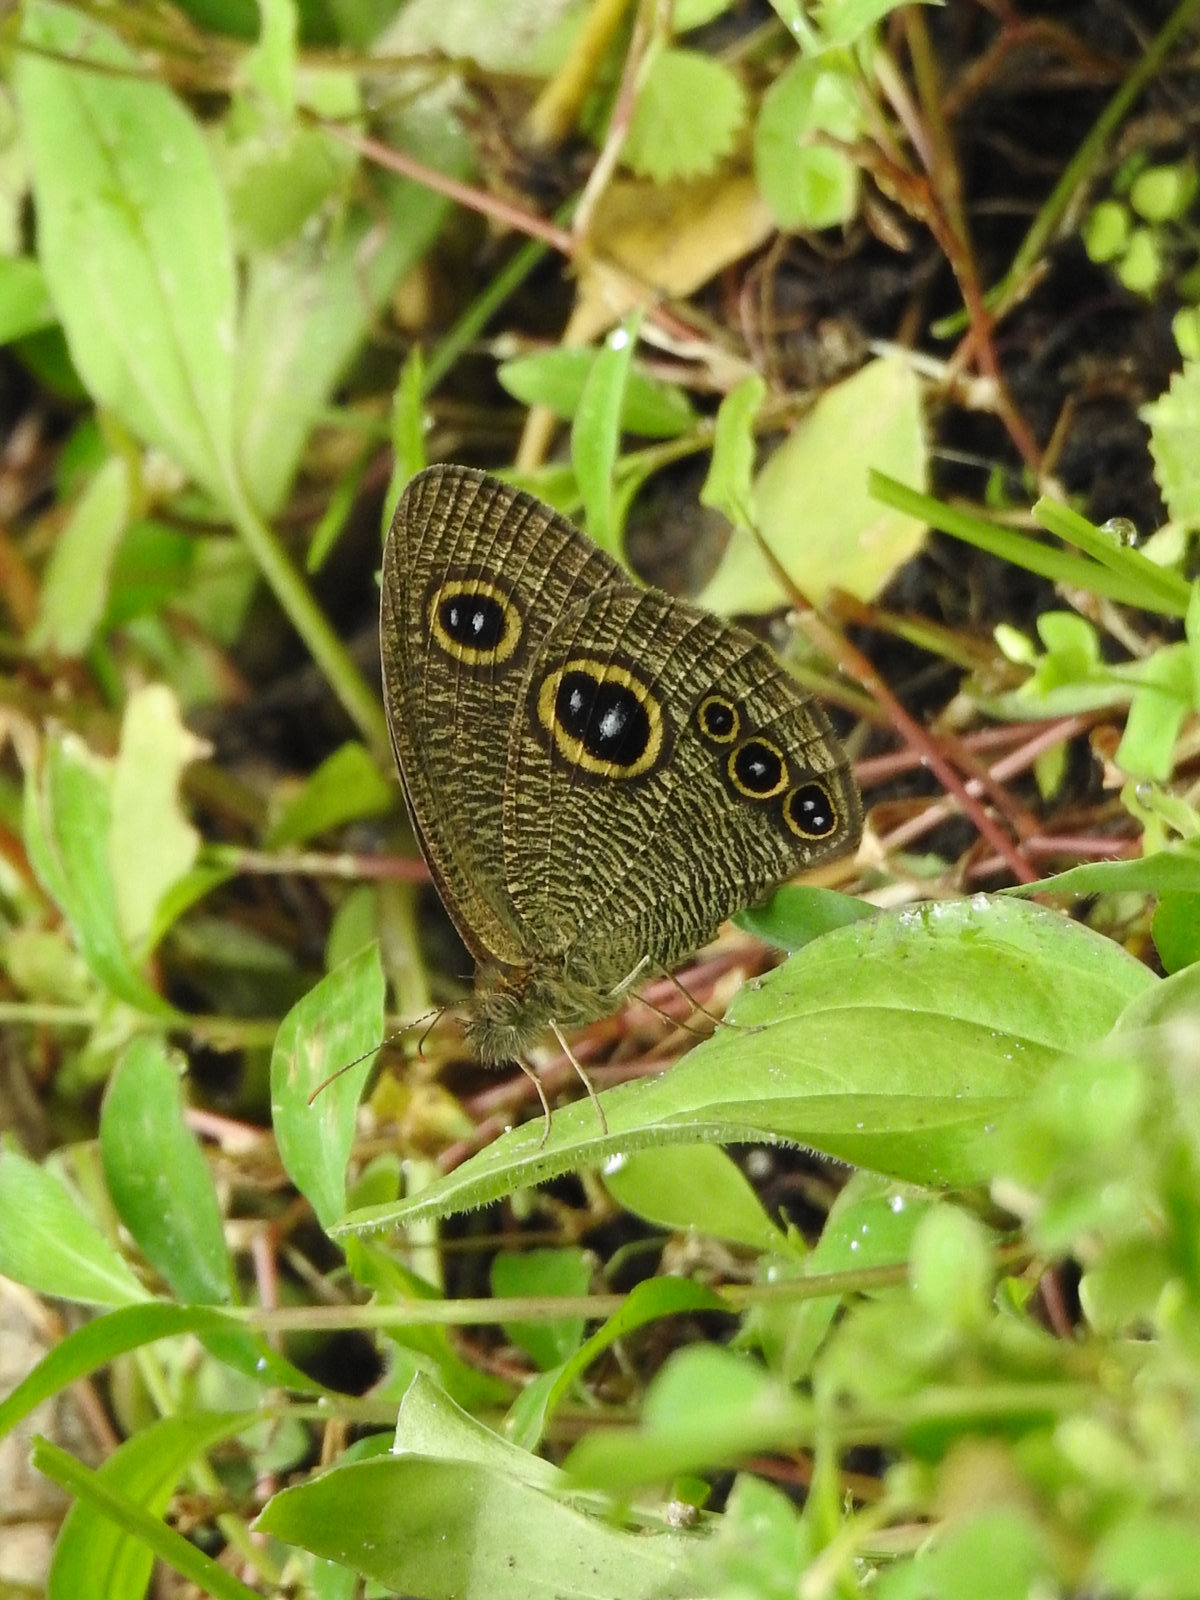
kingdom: Animalia
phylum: Arthropoda
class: Insecta
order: Lepidoptera
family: Nymphalidae
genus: Ypthima
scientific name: Ypthima huebneri
